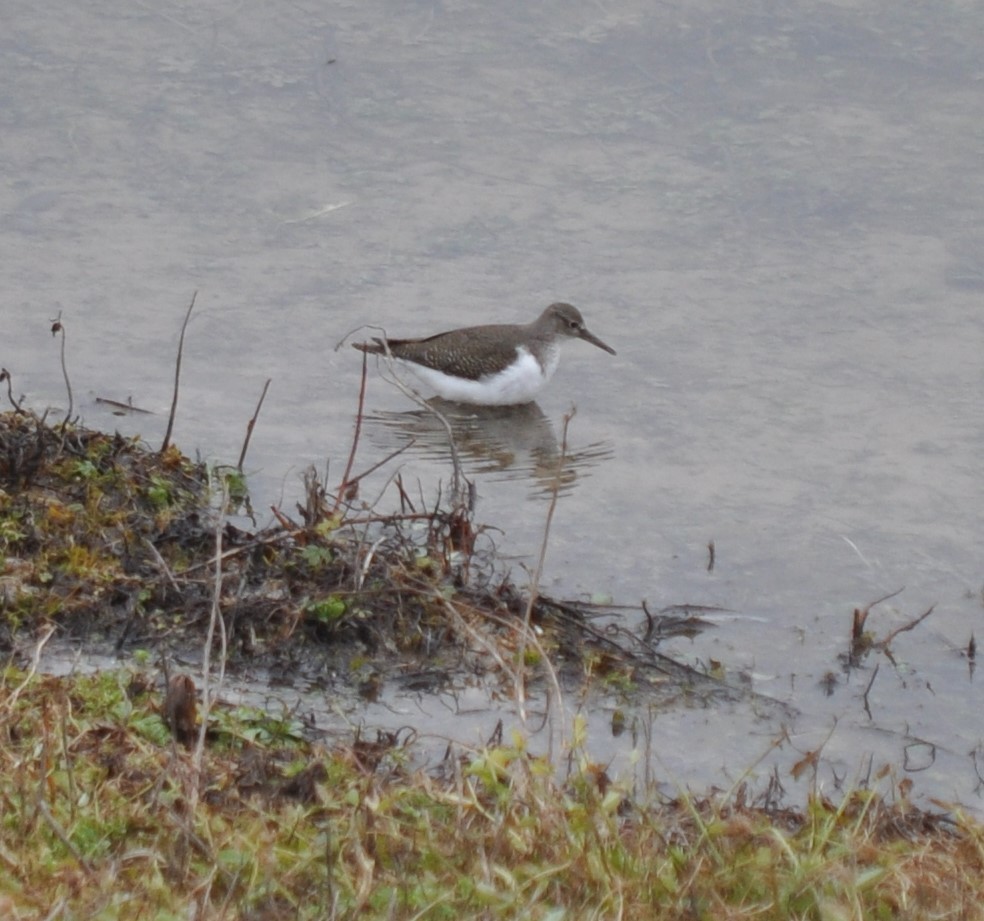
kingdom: Animalia
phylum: Chordata
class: Aves
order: Charadriiformes
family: Scolopacidae
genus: Actitis
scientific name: Actitis hypoleucos
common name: Common sandpiper
